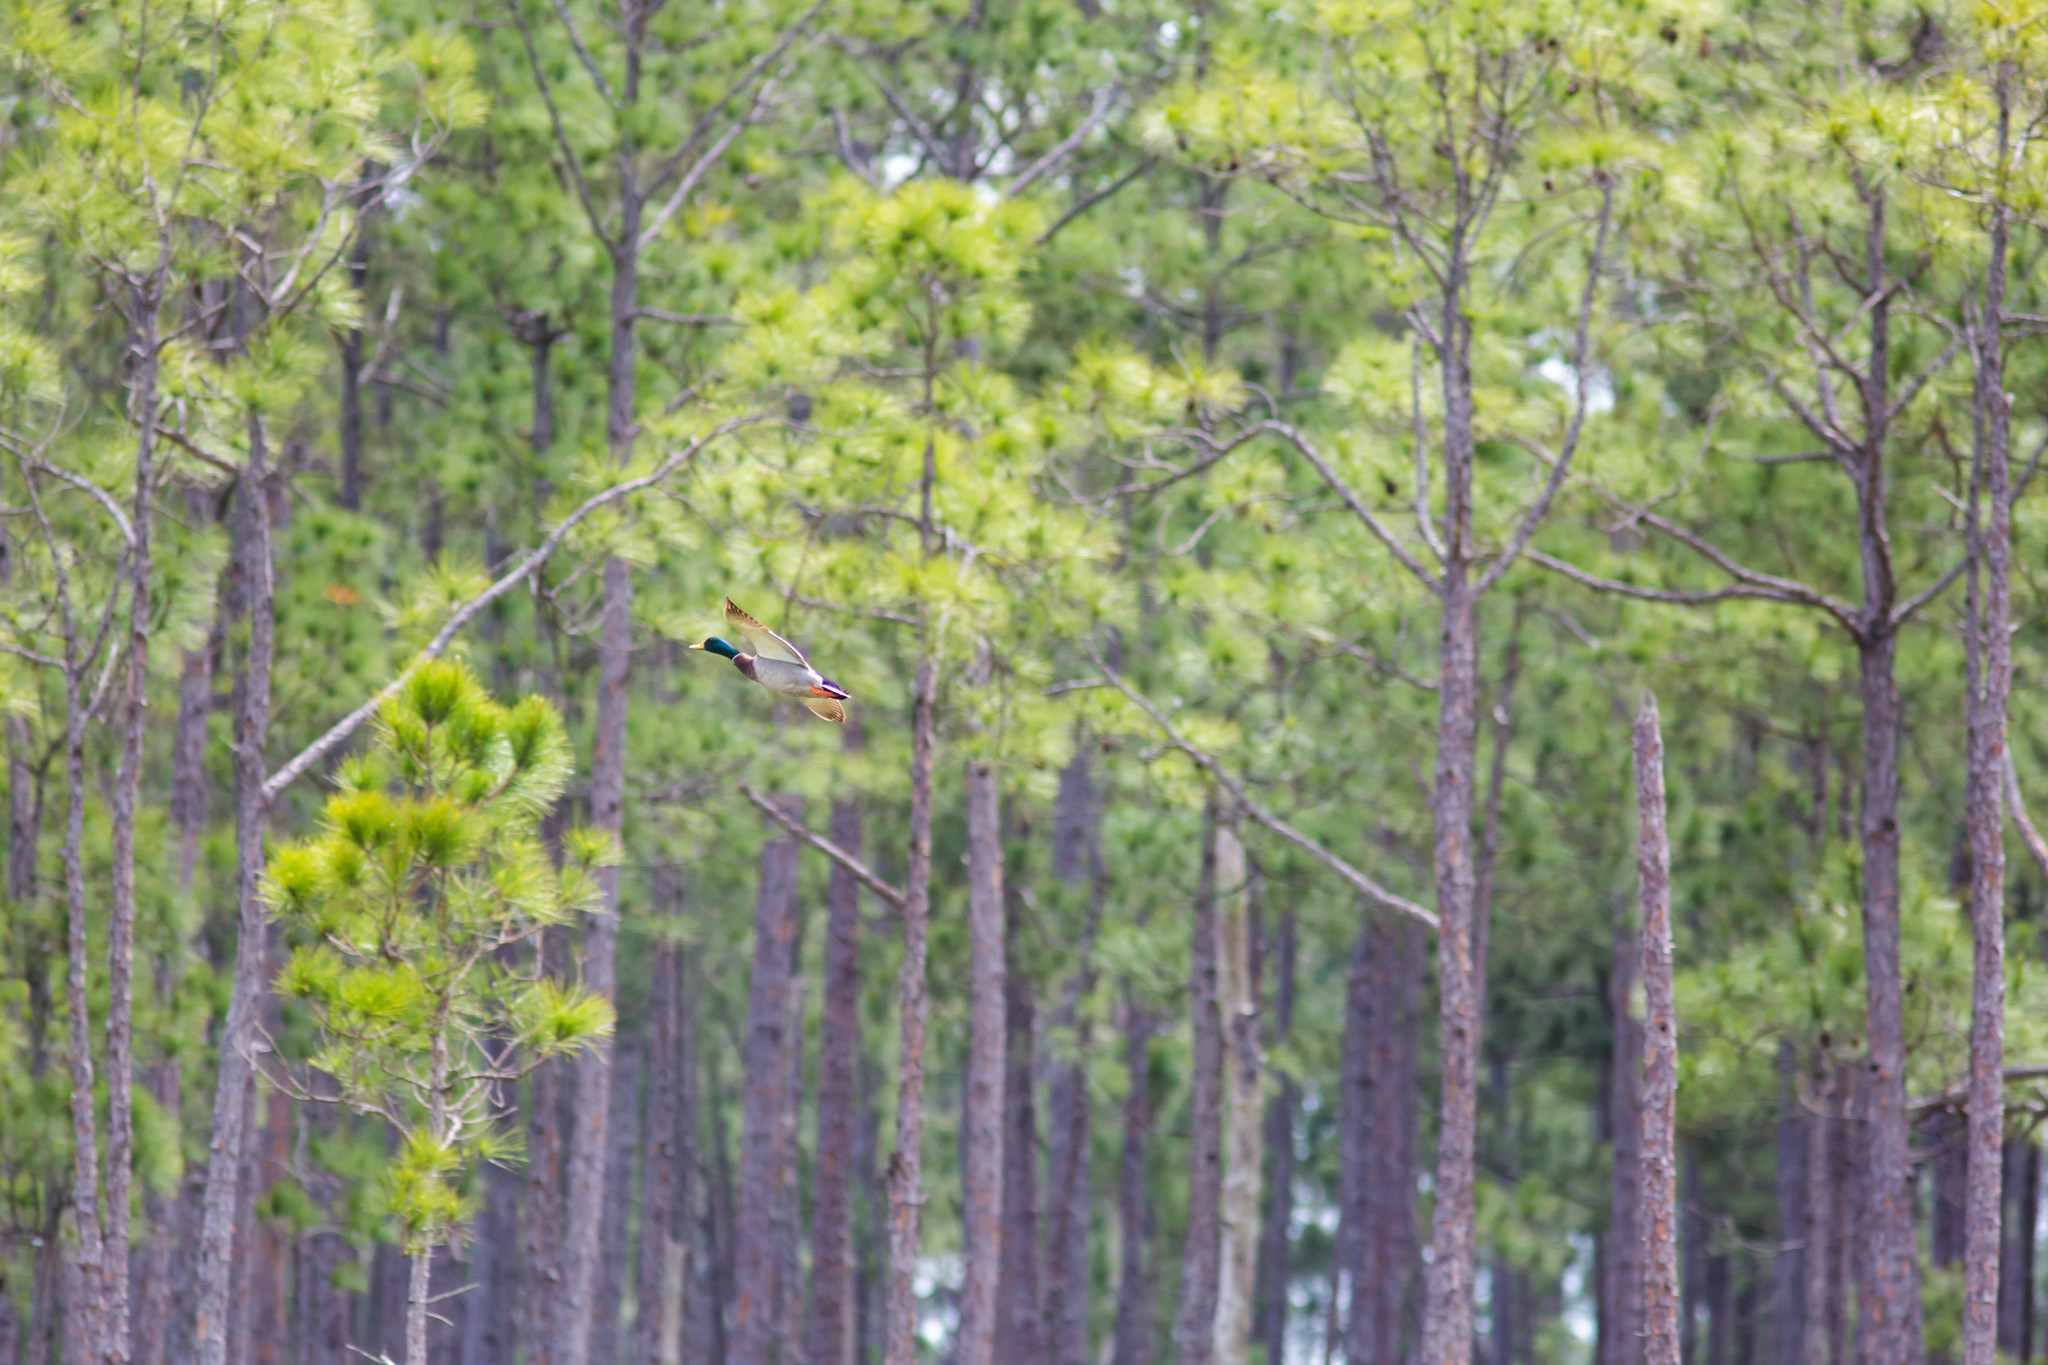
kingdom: Animalia
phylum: Chordata
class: Aves
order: Anseriformes
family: Anatidae
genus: Anas
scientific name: Anas platyrhynchos
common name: Mallard
